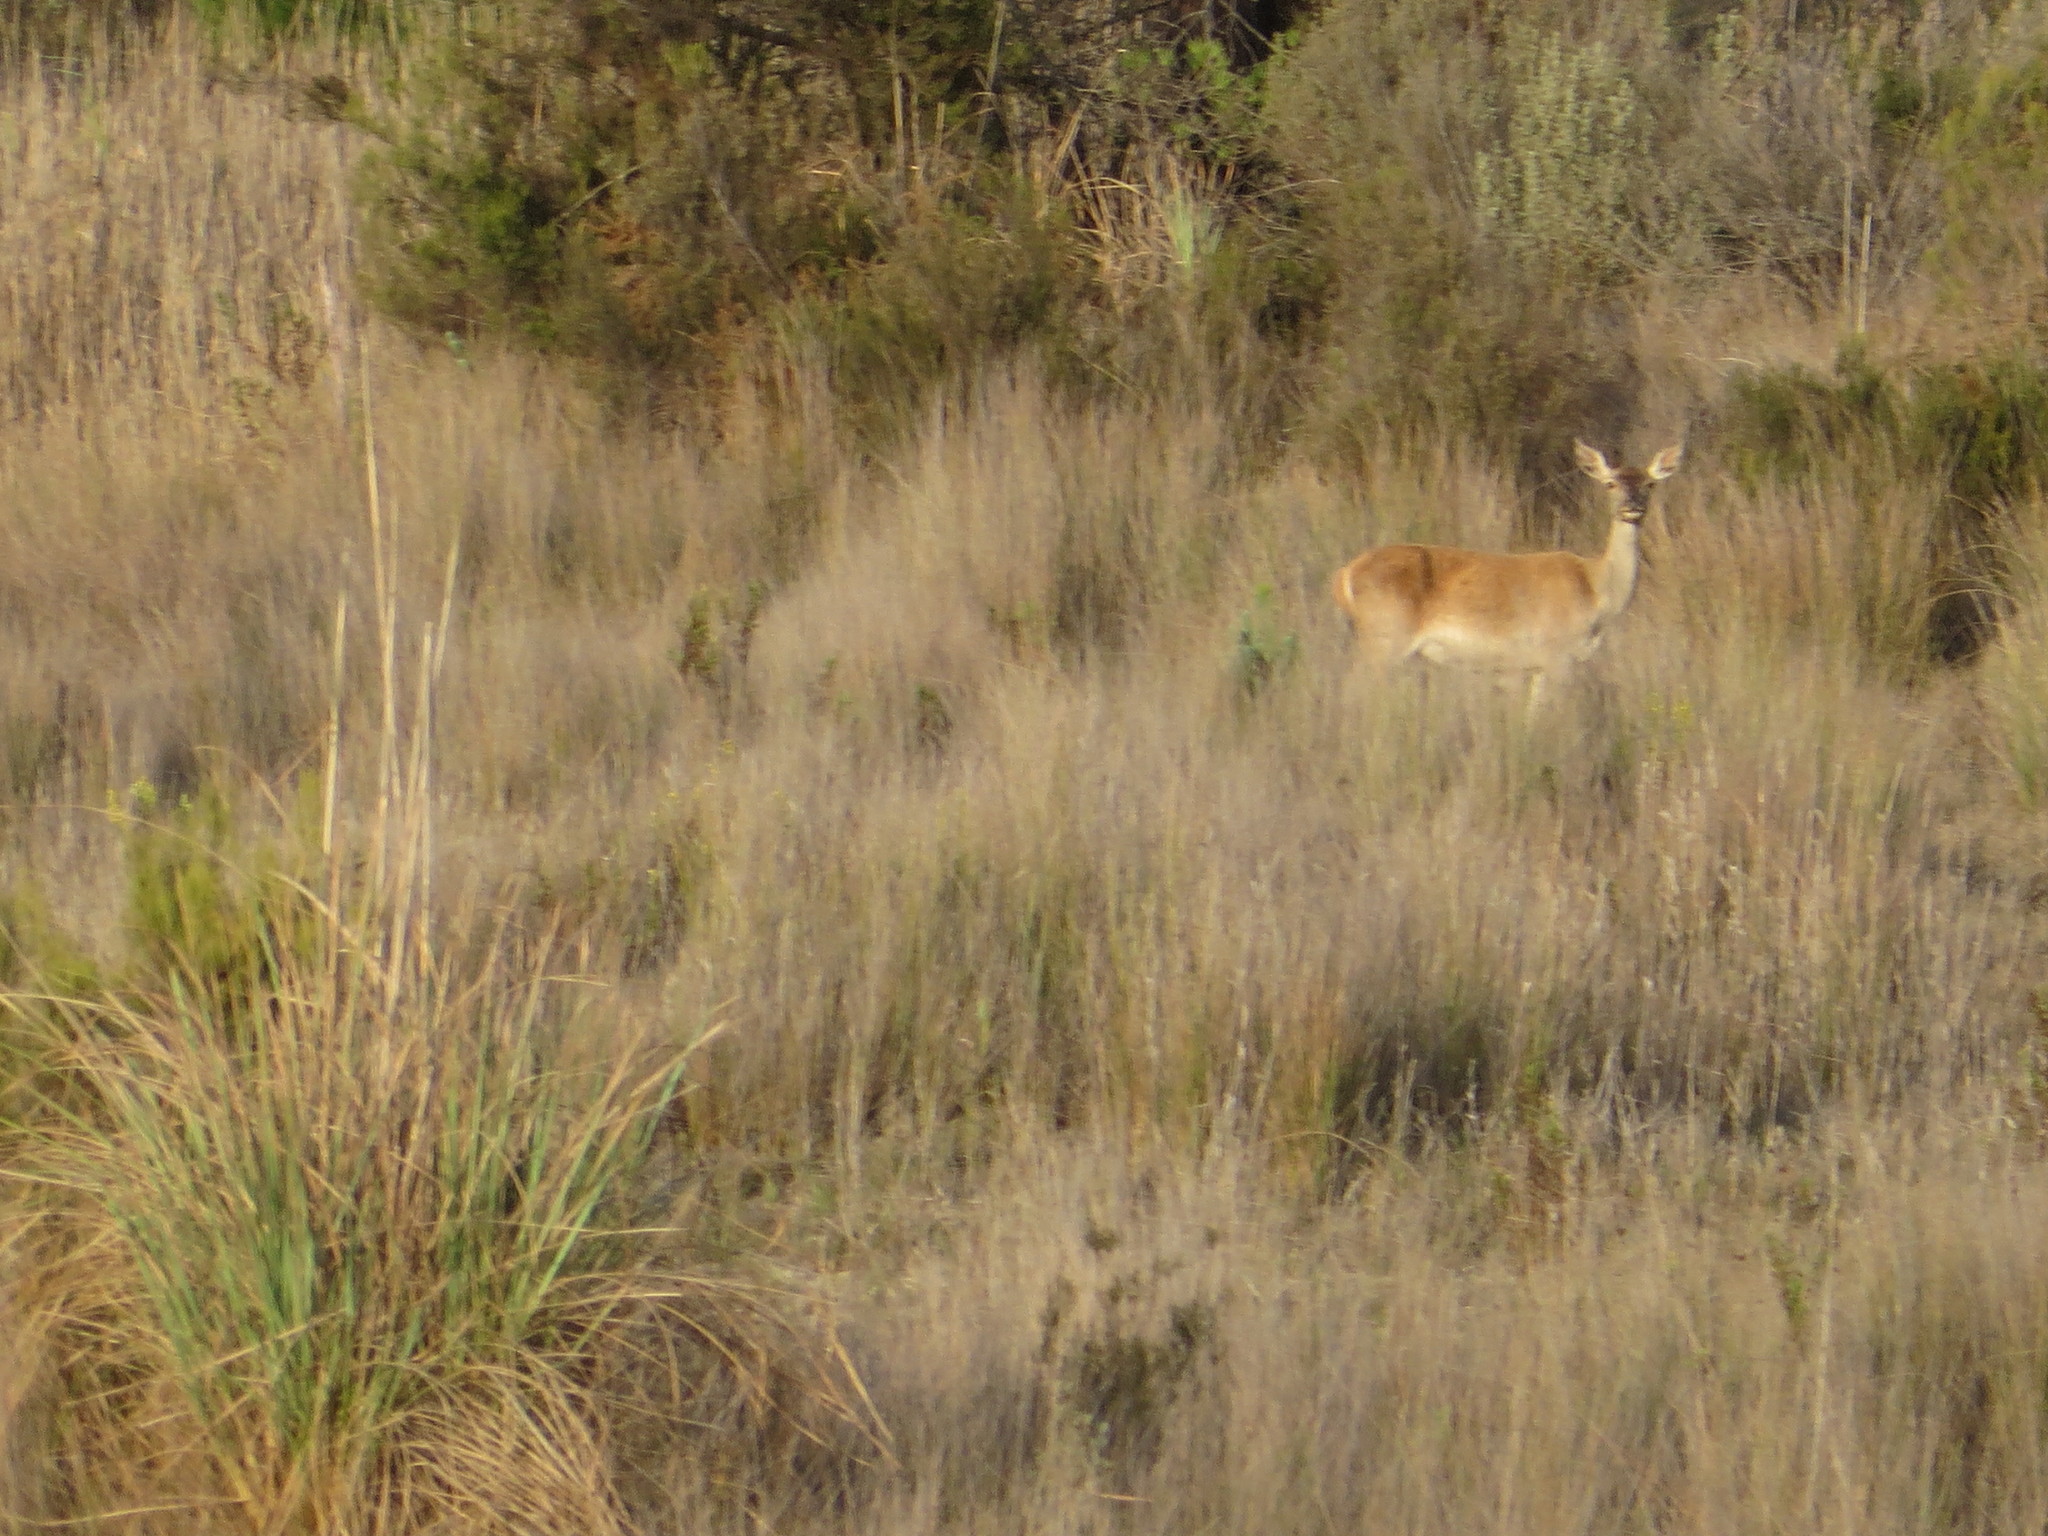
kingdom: Animalia
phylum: Chordata
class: Mammalia
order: Artiodactyla
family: Cervidae
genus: Cervus
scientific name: Cervus elaphus
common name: Red deer
